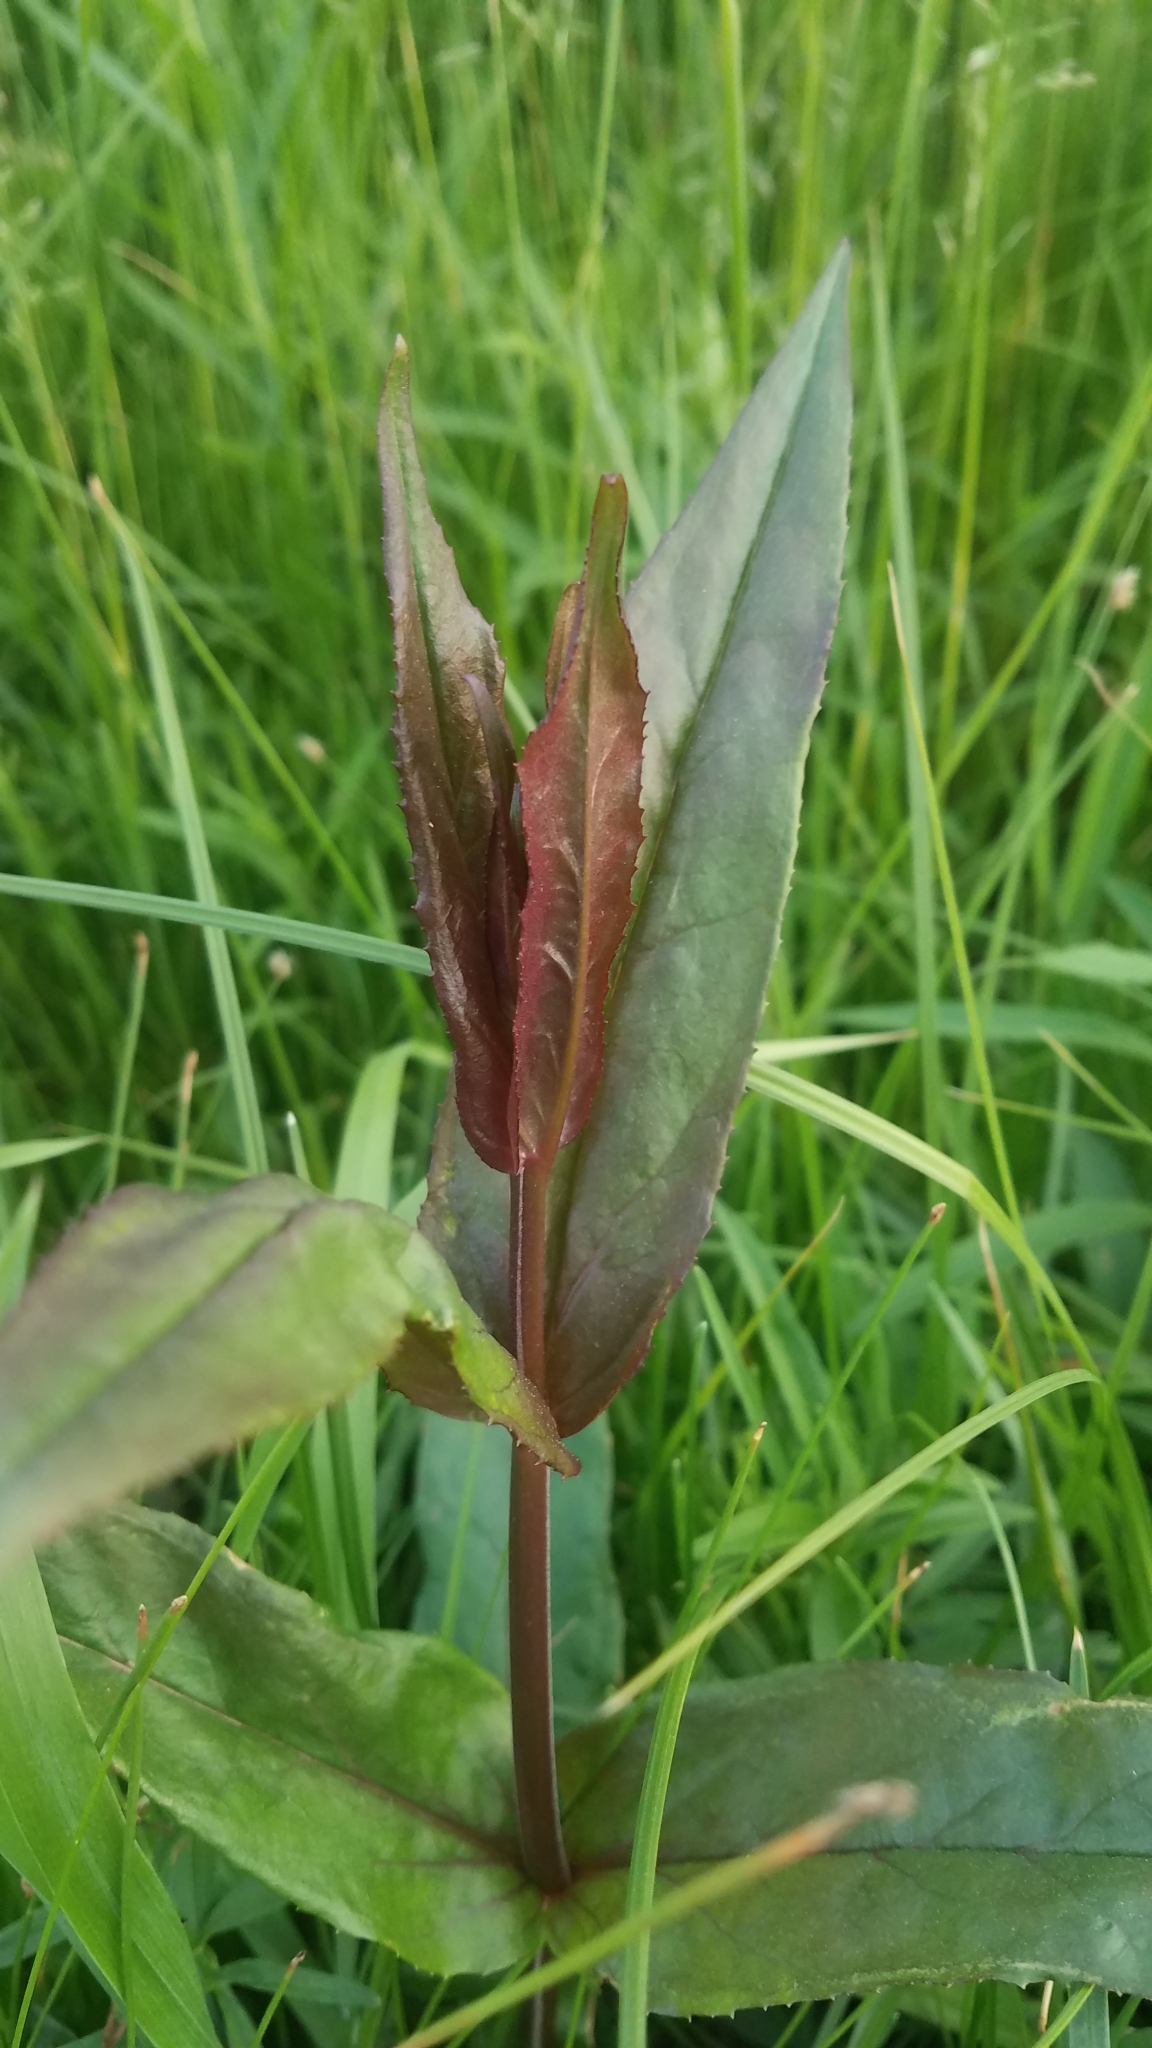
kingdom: Plantae
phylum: Tracheophyta
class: Magnoliopsida
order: Lamiales
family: Plantaginaceae
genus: Penstemon
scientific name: Penstemon digitalis
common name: Foxglove beardtongue
